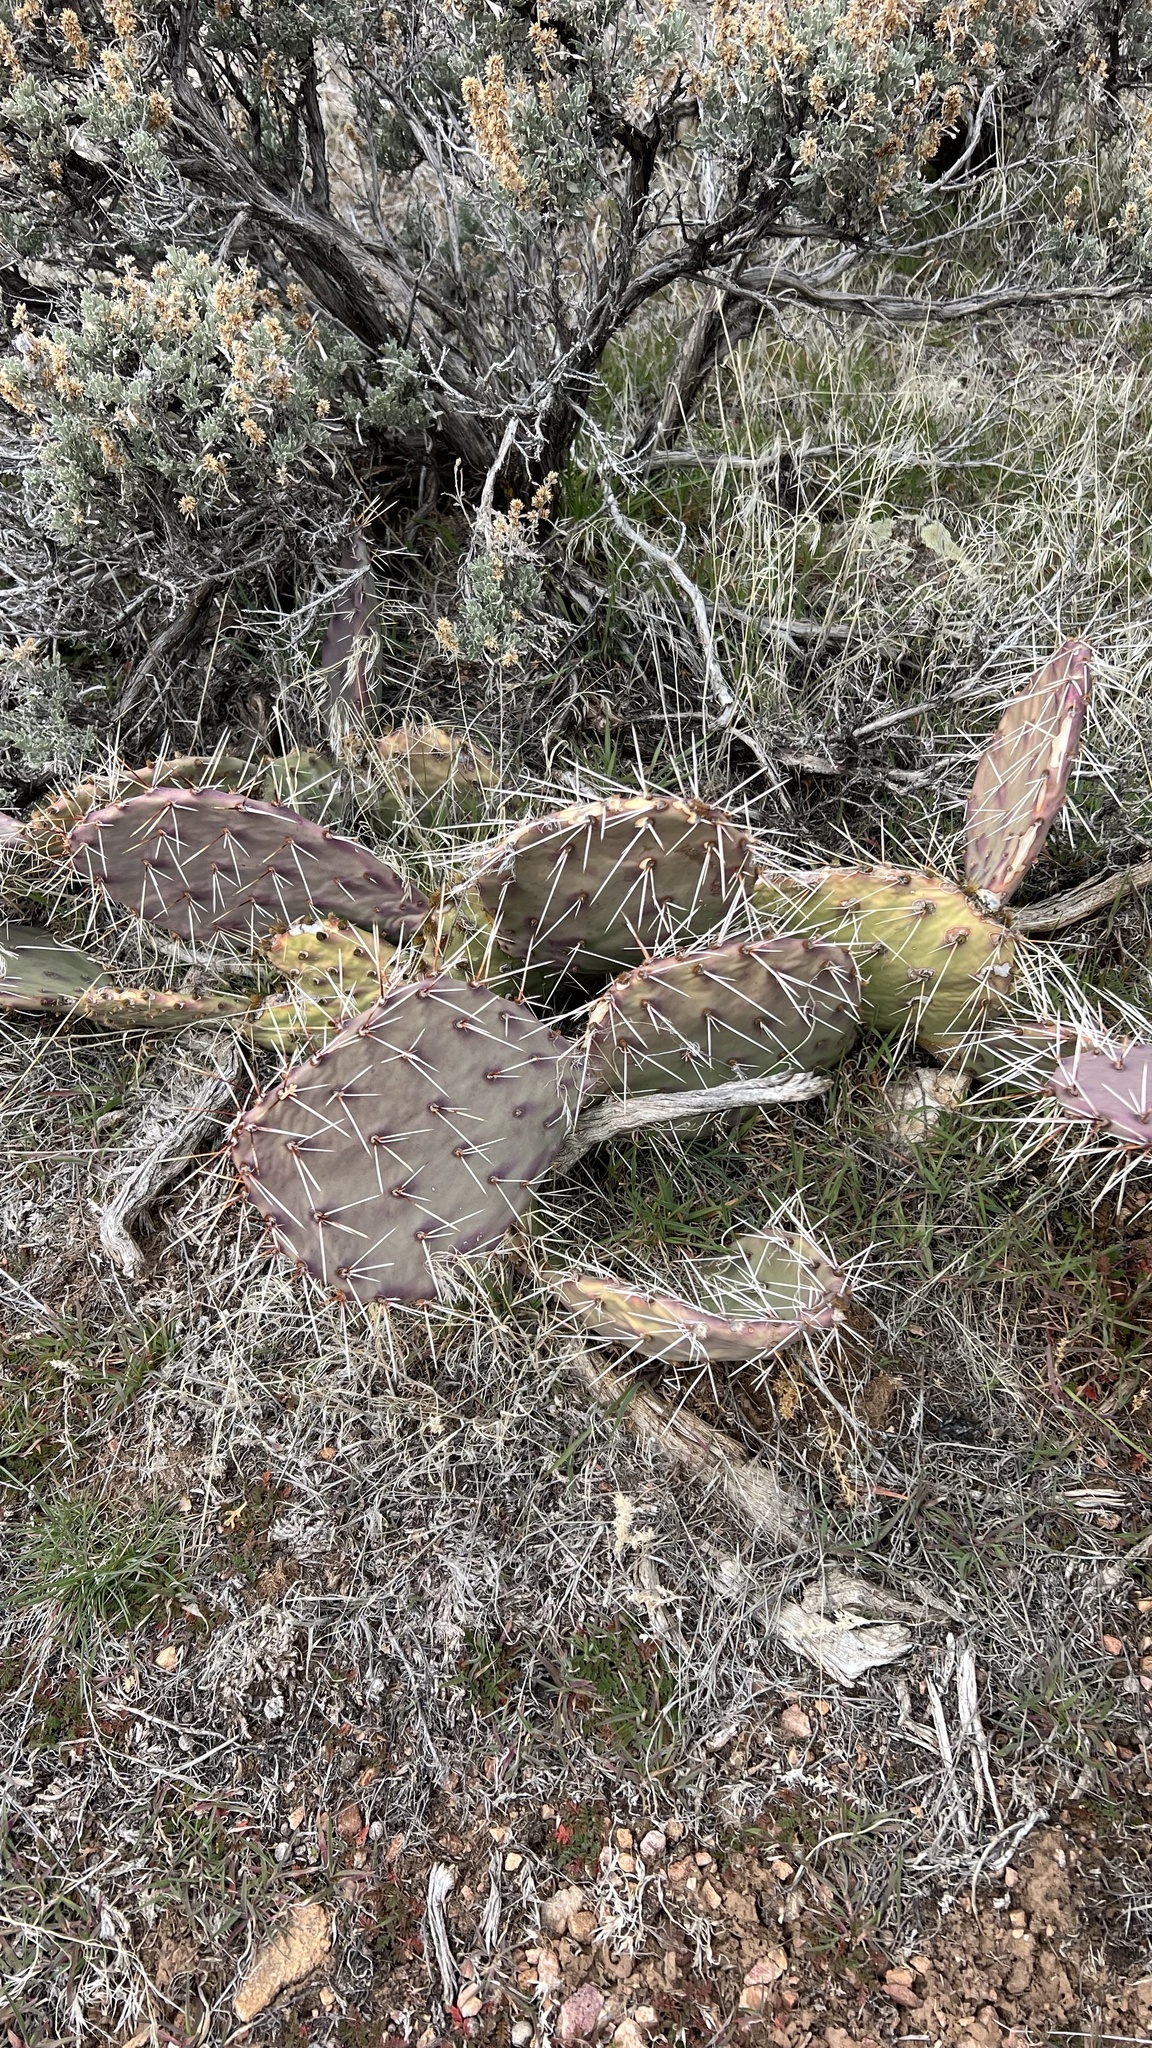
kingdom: Plantae
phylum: Tracheophyta
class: Magnoliopsida
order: Caryophyllales
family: Cactaceae
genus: Opuntia
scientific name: Opuntia phaeacantha
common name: New mexico prickly-pear
